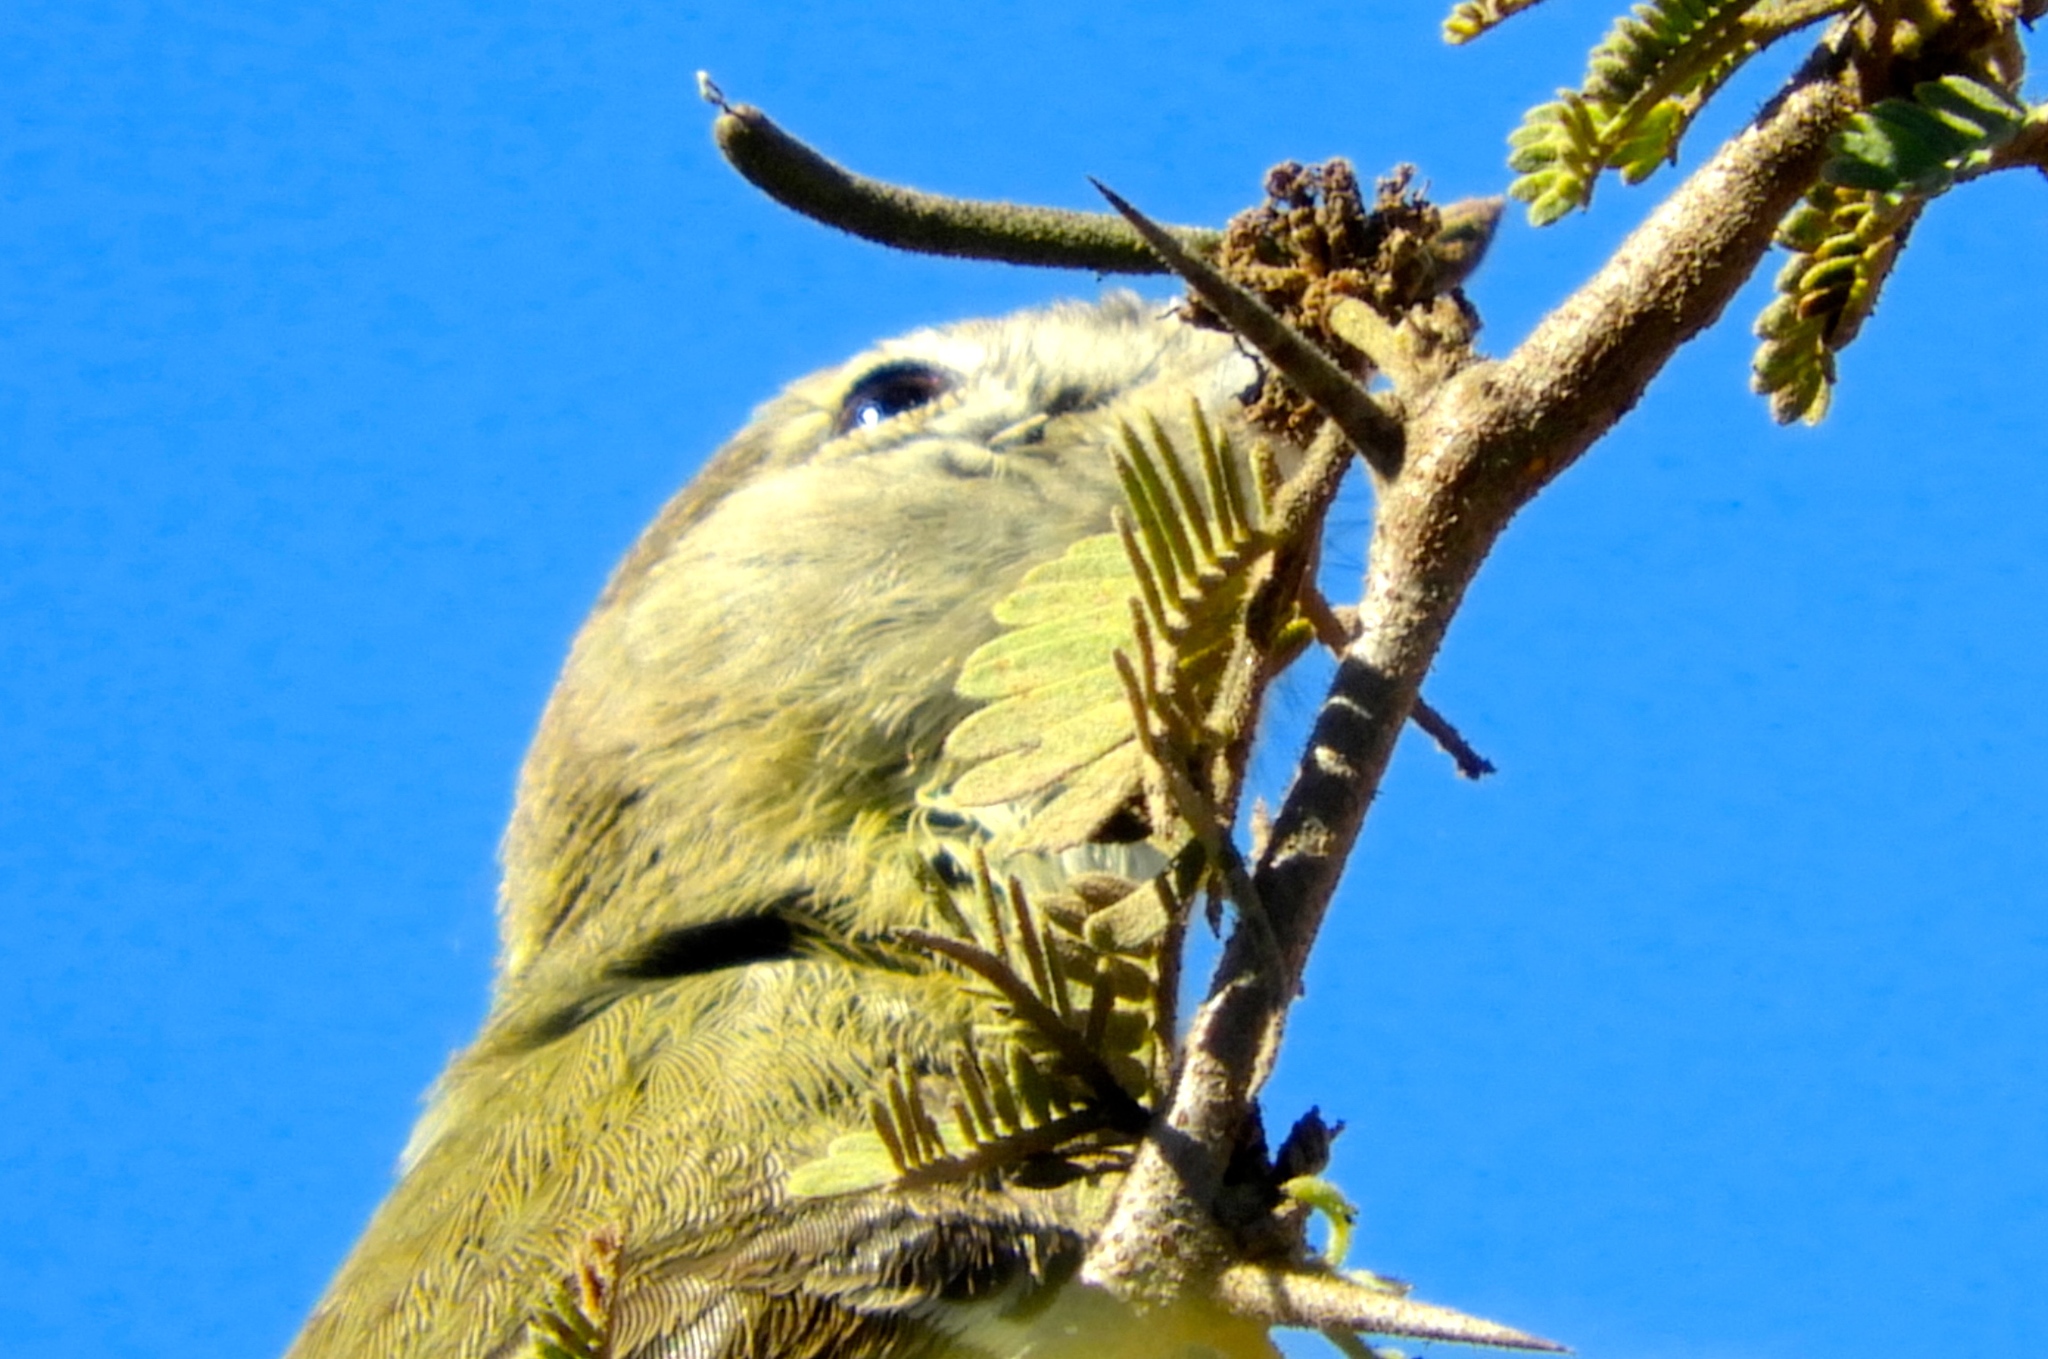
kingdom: Animalia
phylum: Chordata
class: Aves
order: Passeriformes
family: Vireonidae
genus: Vireo
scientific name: Vireo bellii
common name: Bell's vireo
